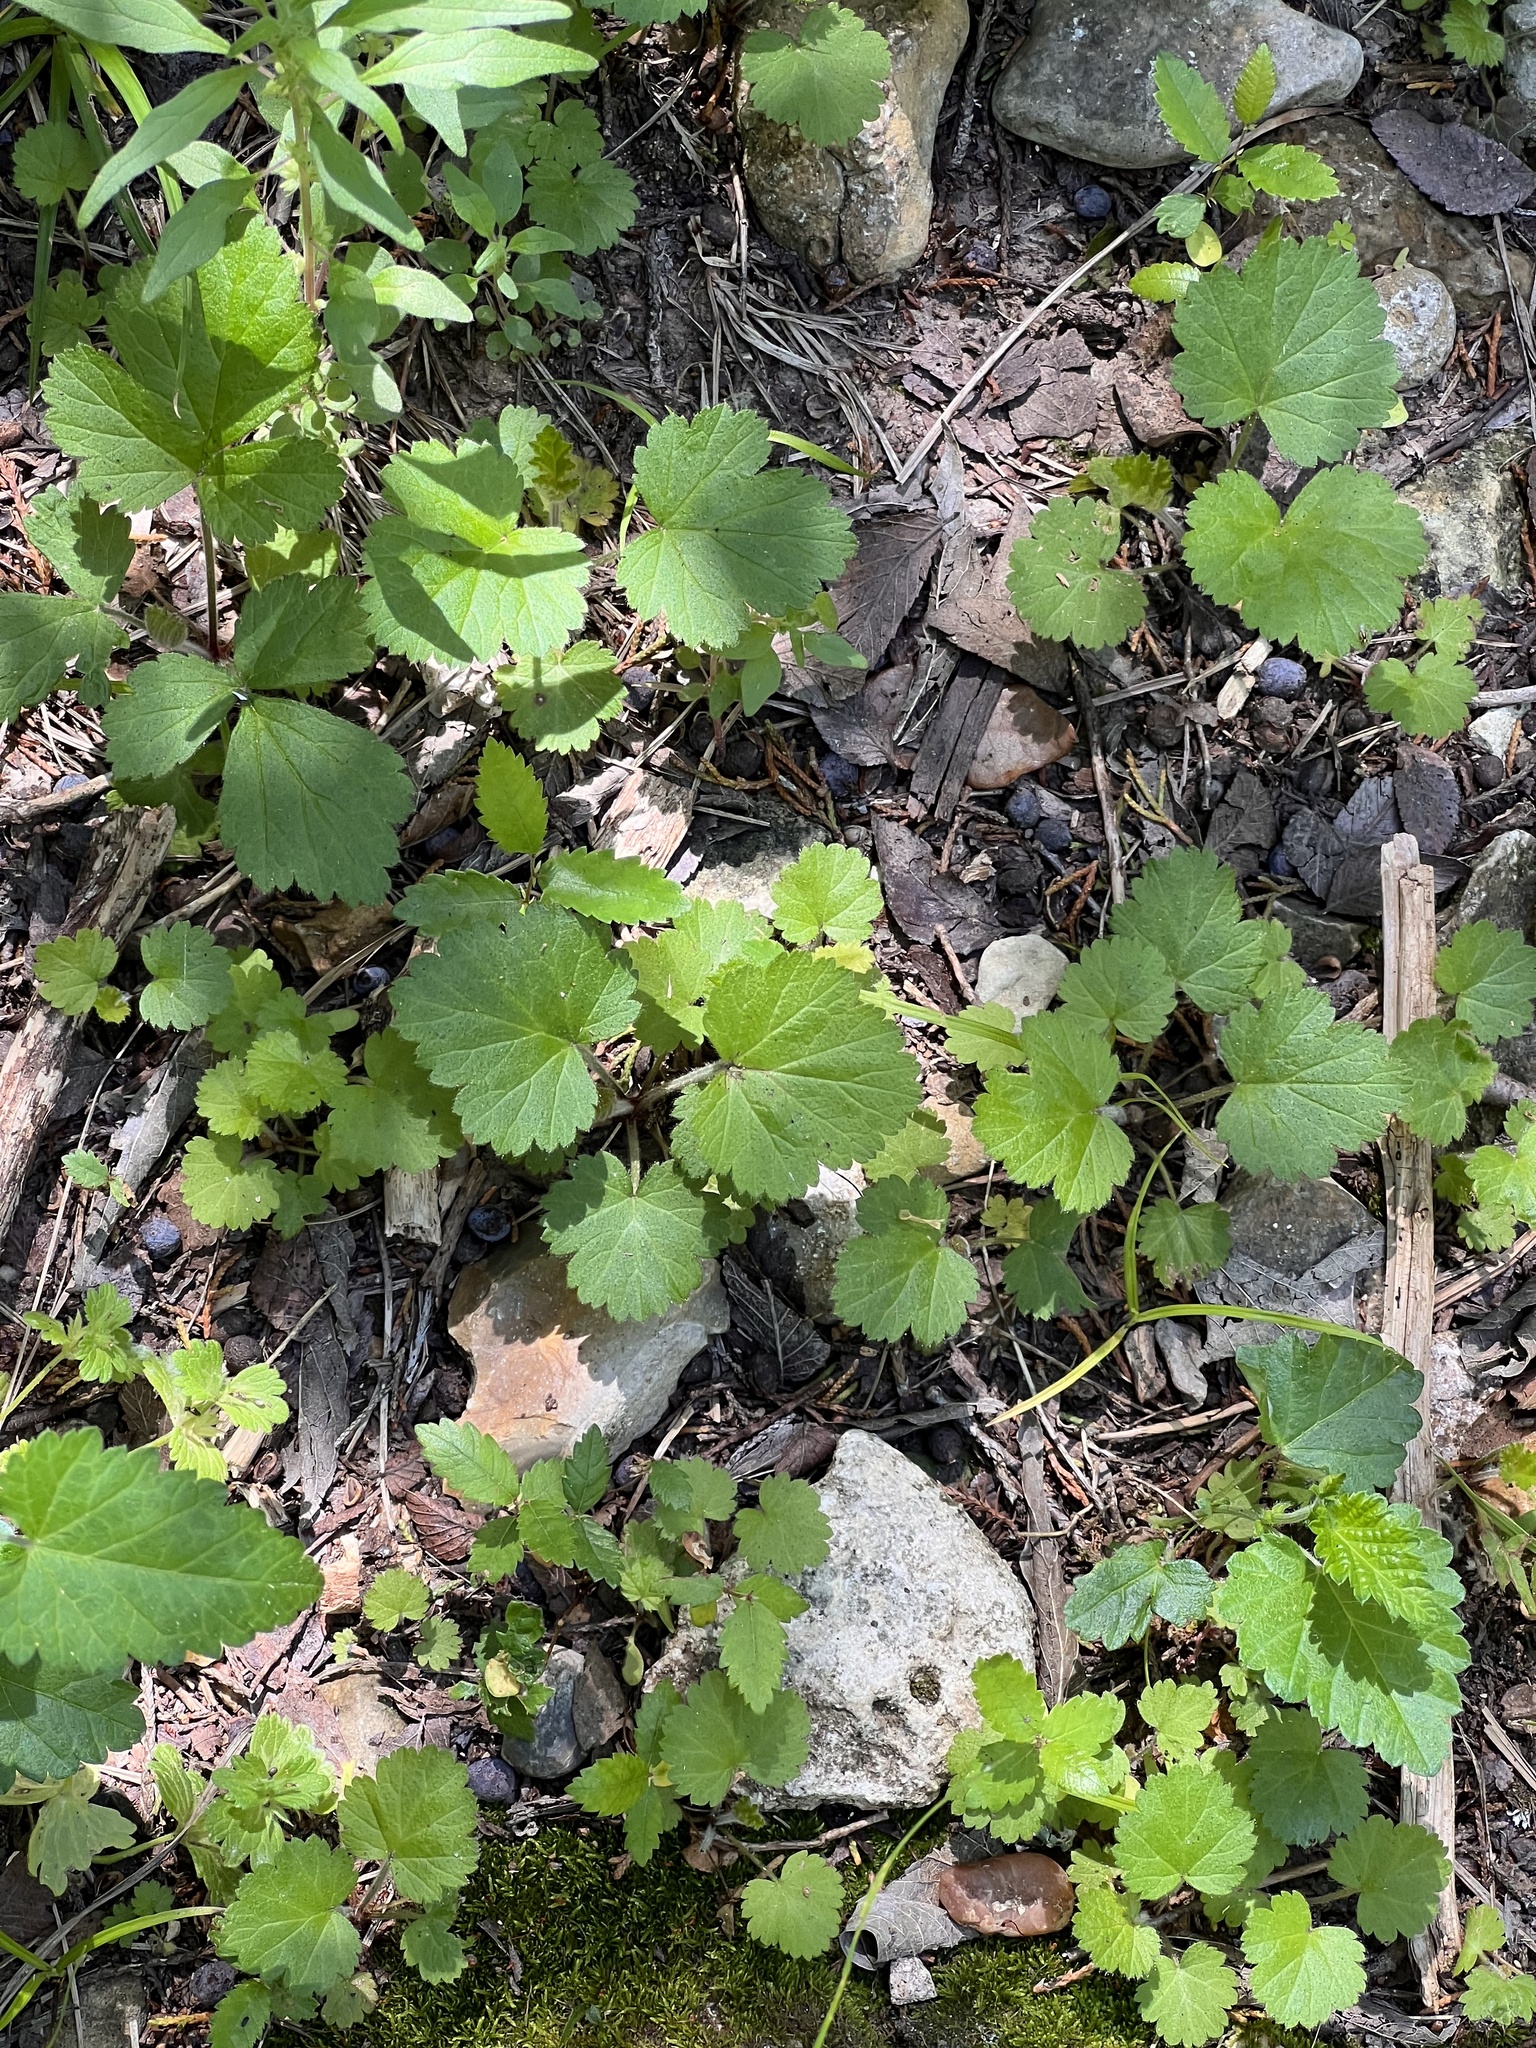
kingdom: Plantae
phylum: Tracheophyta
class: Magnoliopsida
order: Malvales
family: Malvaceae
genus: Modiola
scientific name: Modiola caroliniana
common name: Carolina bristlemallow
